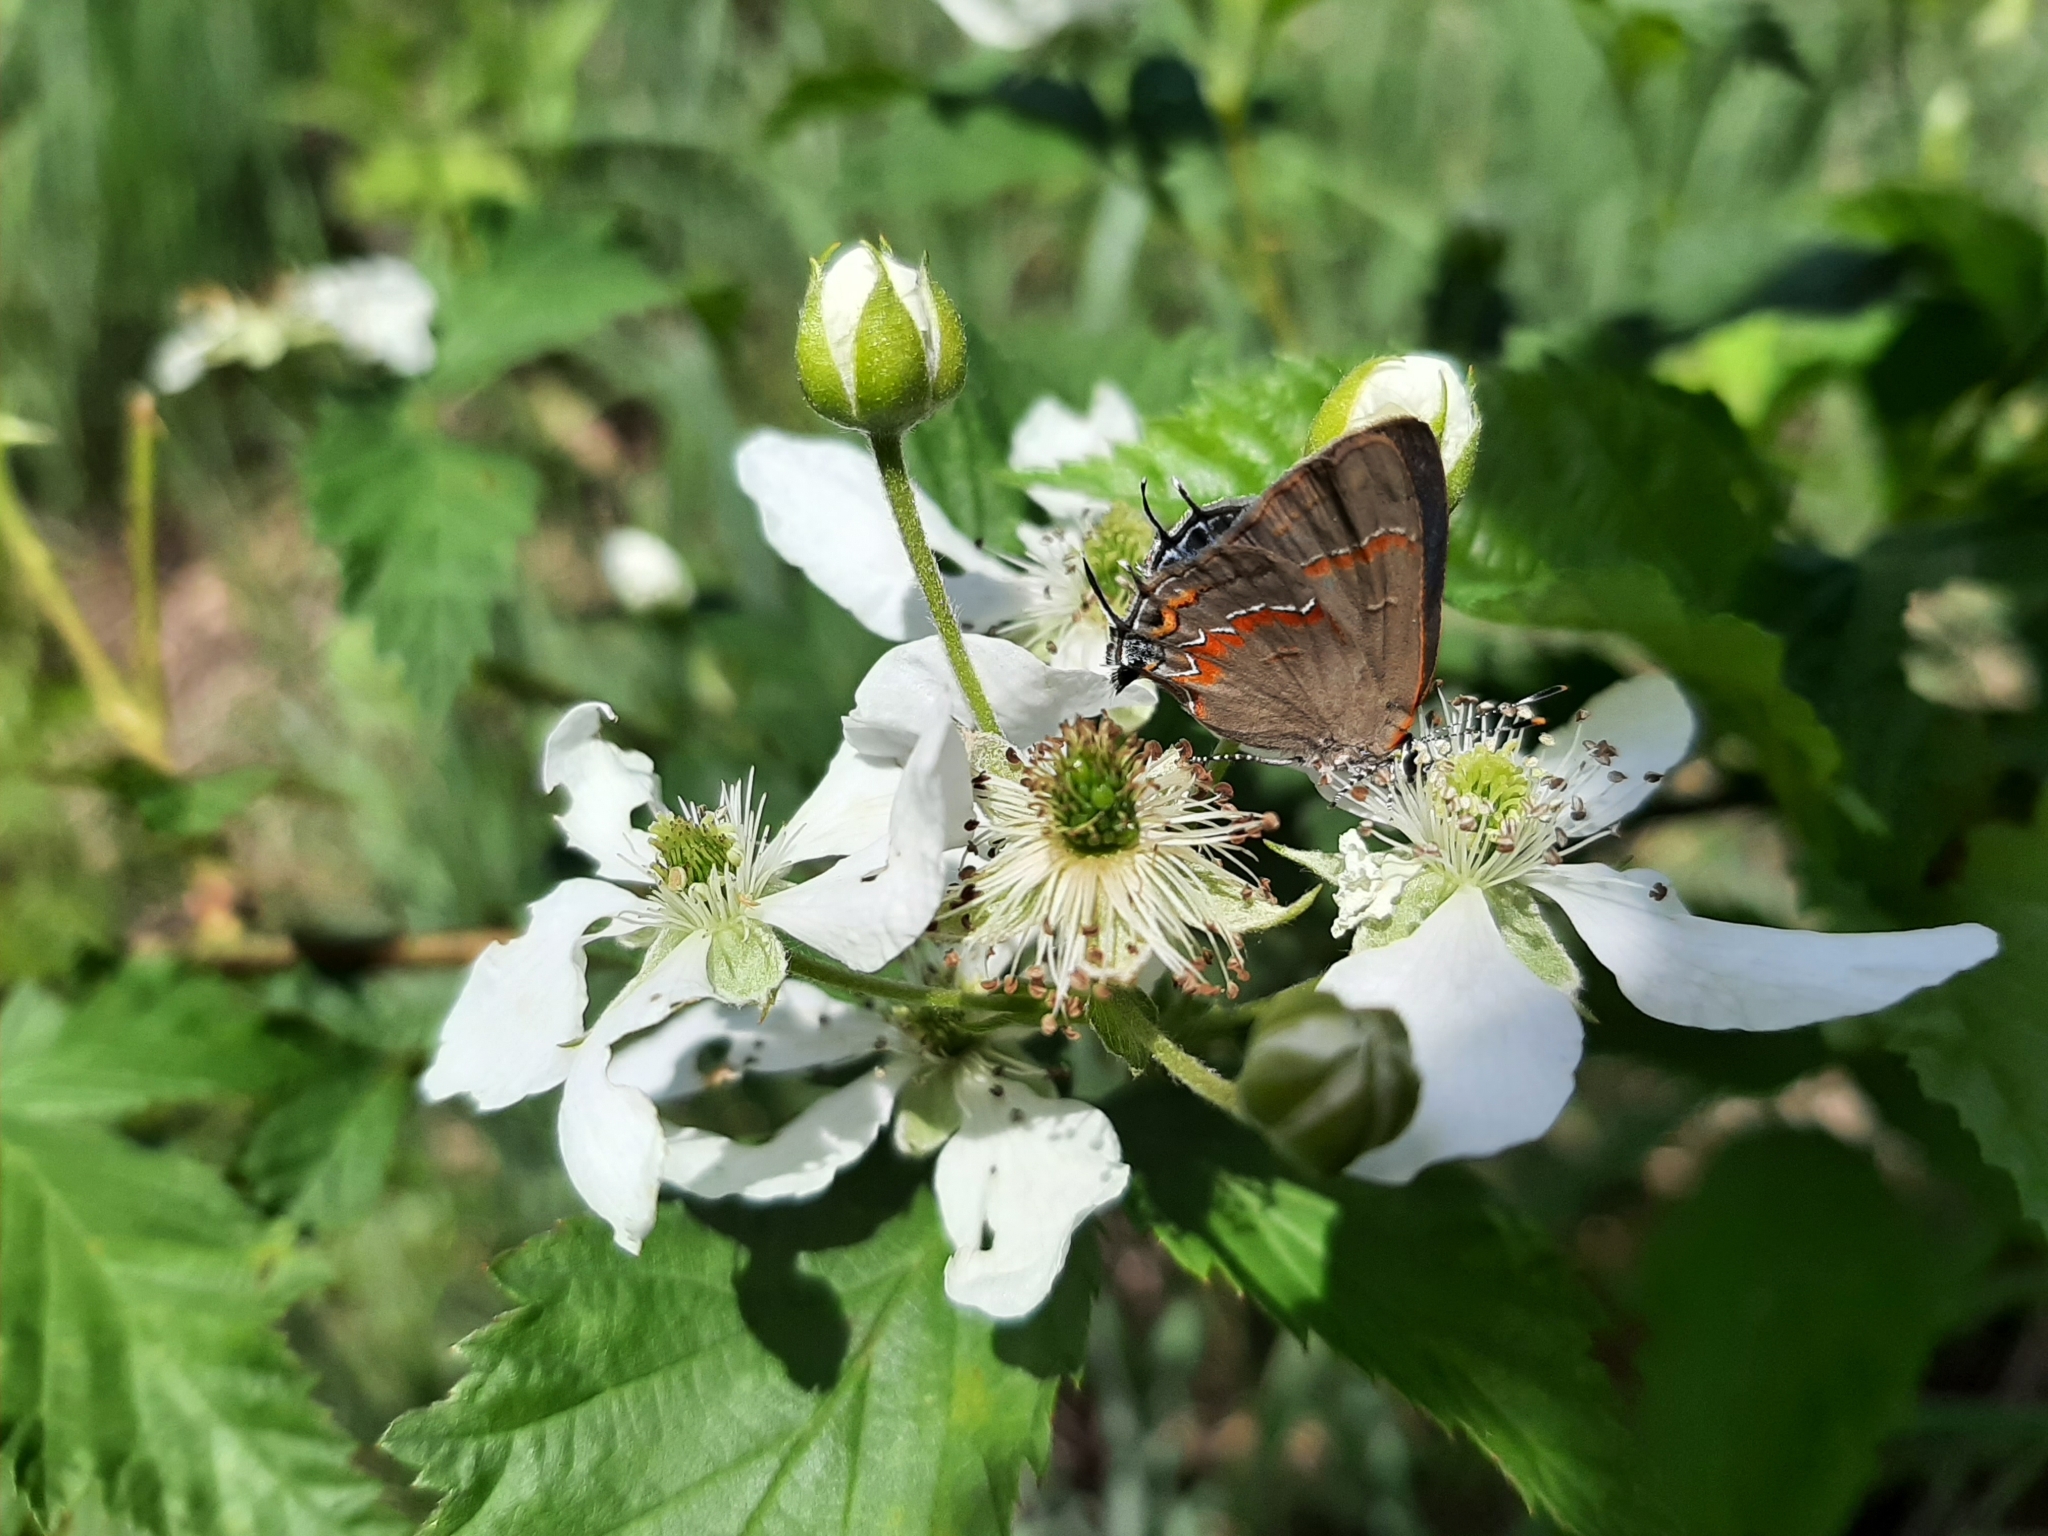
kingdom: Animalia
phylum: Arthropoda
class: Insecta
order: Lepidoptera
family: Lycaenidae
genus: Calycopis
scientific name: Calycopis cecrops
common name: Red-banded hairstreak
